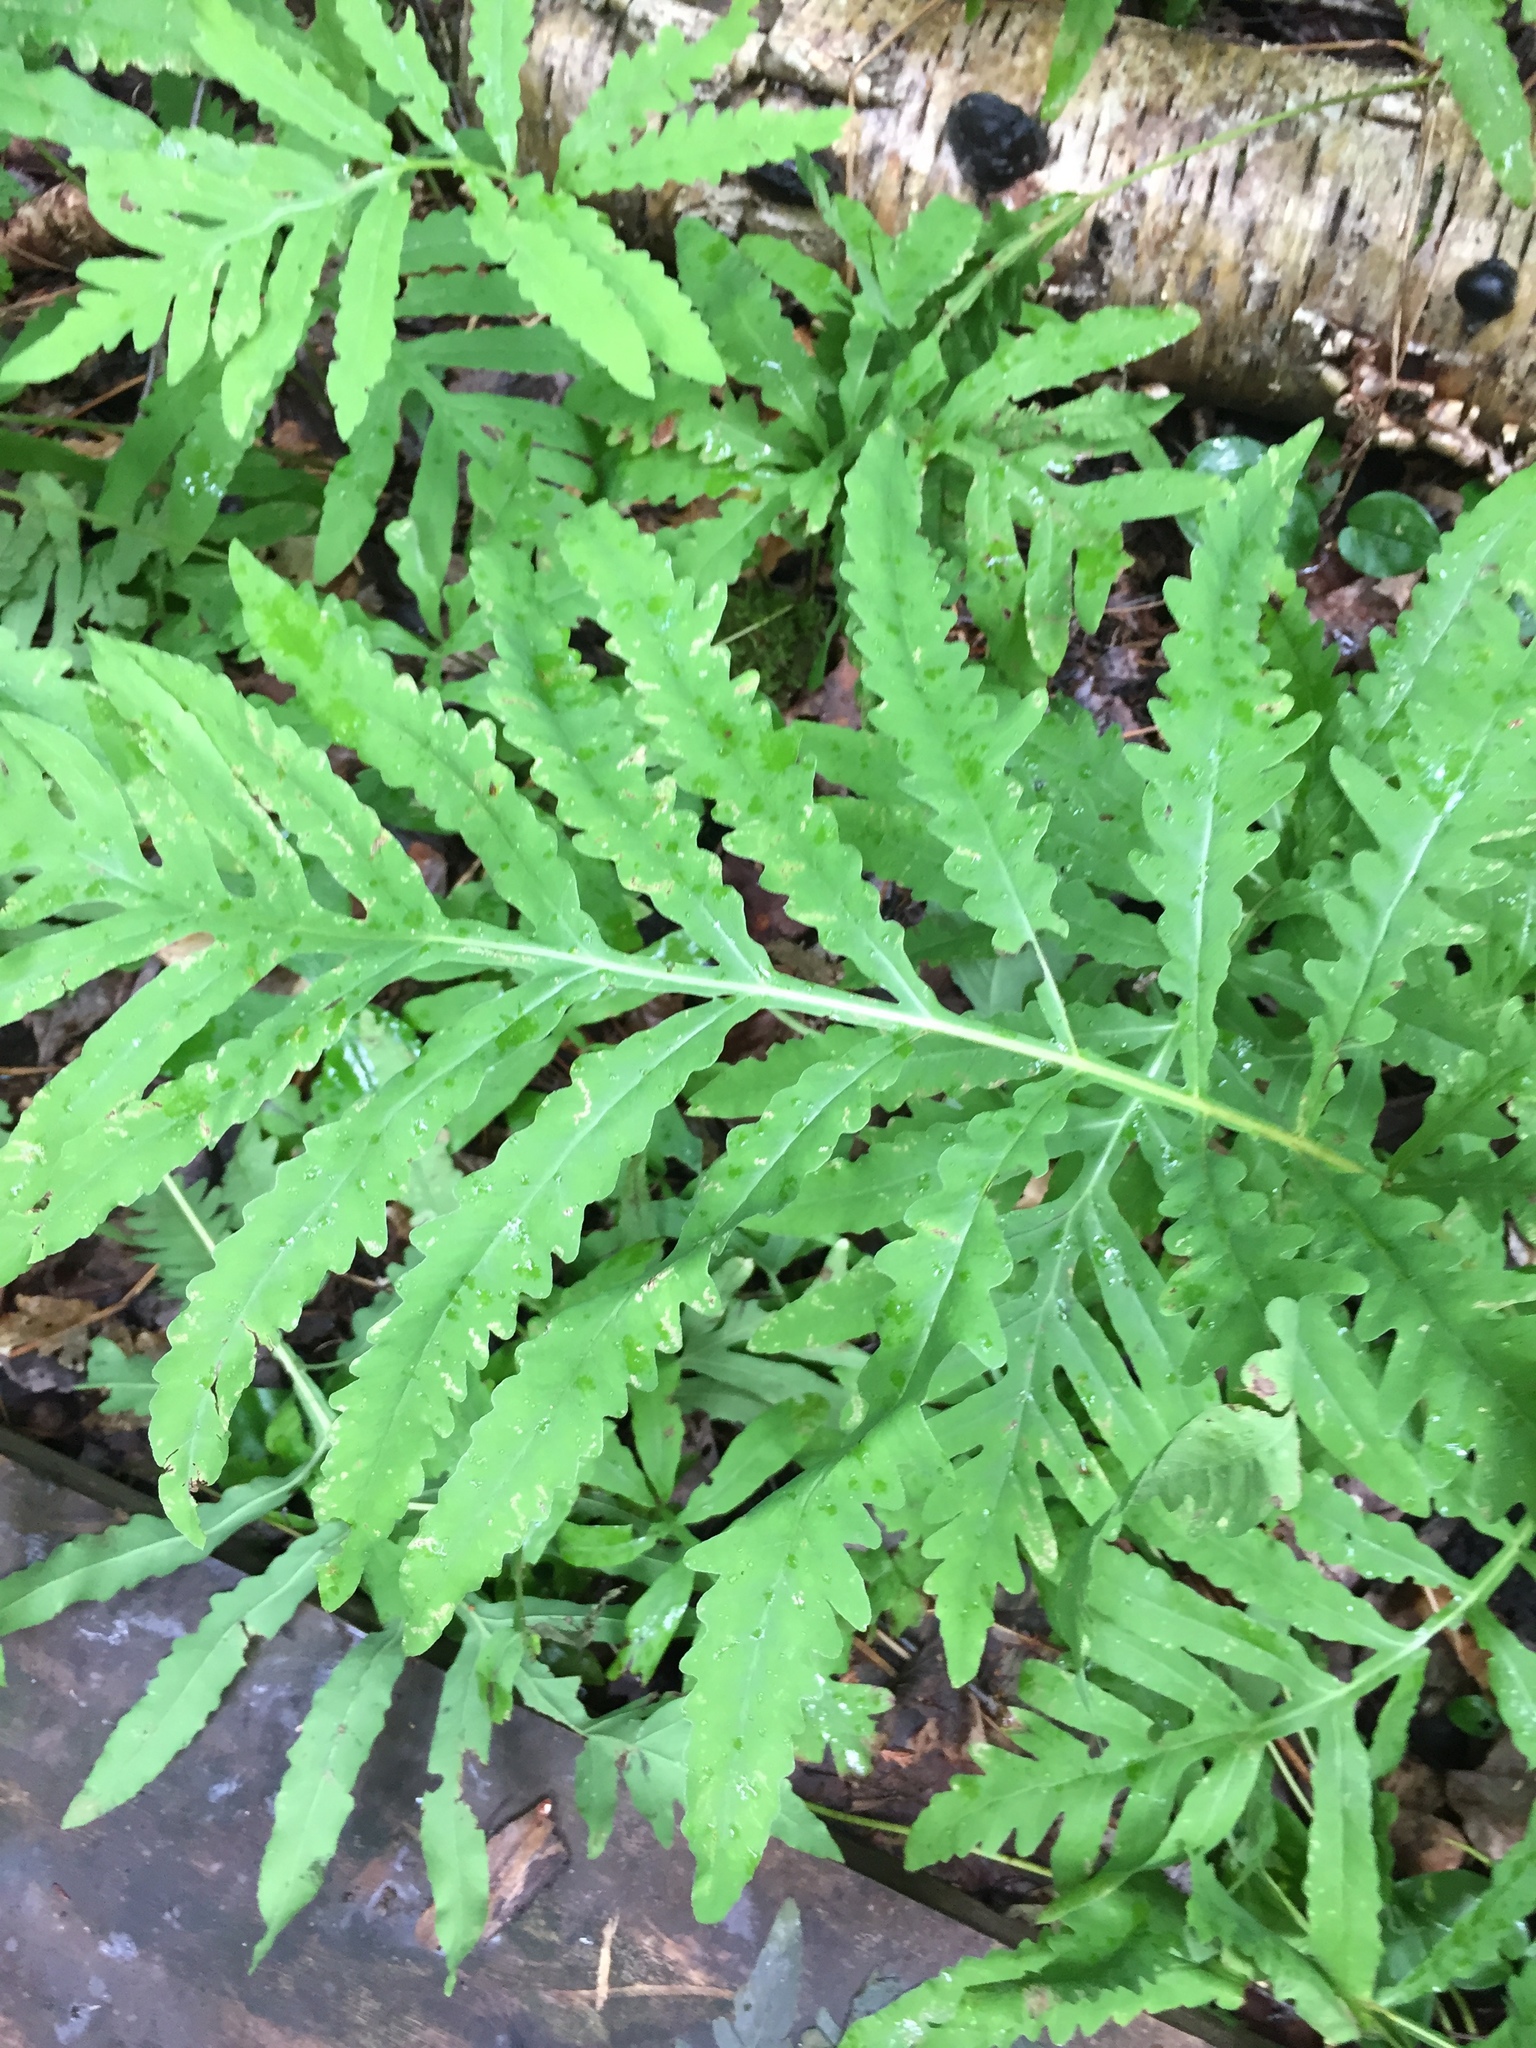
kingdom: Plantae
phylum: Tracheophyta
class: Polypodiopsida
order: Polypodiales
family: Onocleaceae
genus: Onoclea
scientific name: Onoclea sensibilis
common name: Sensitive fern
